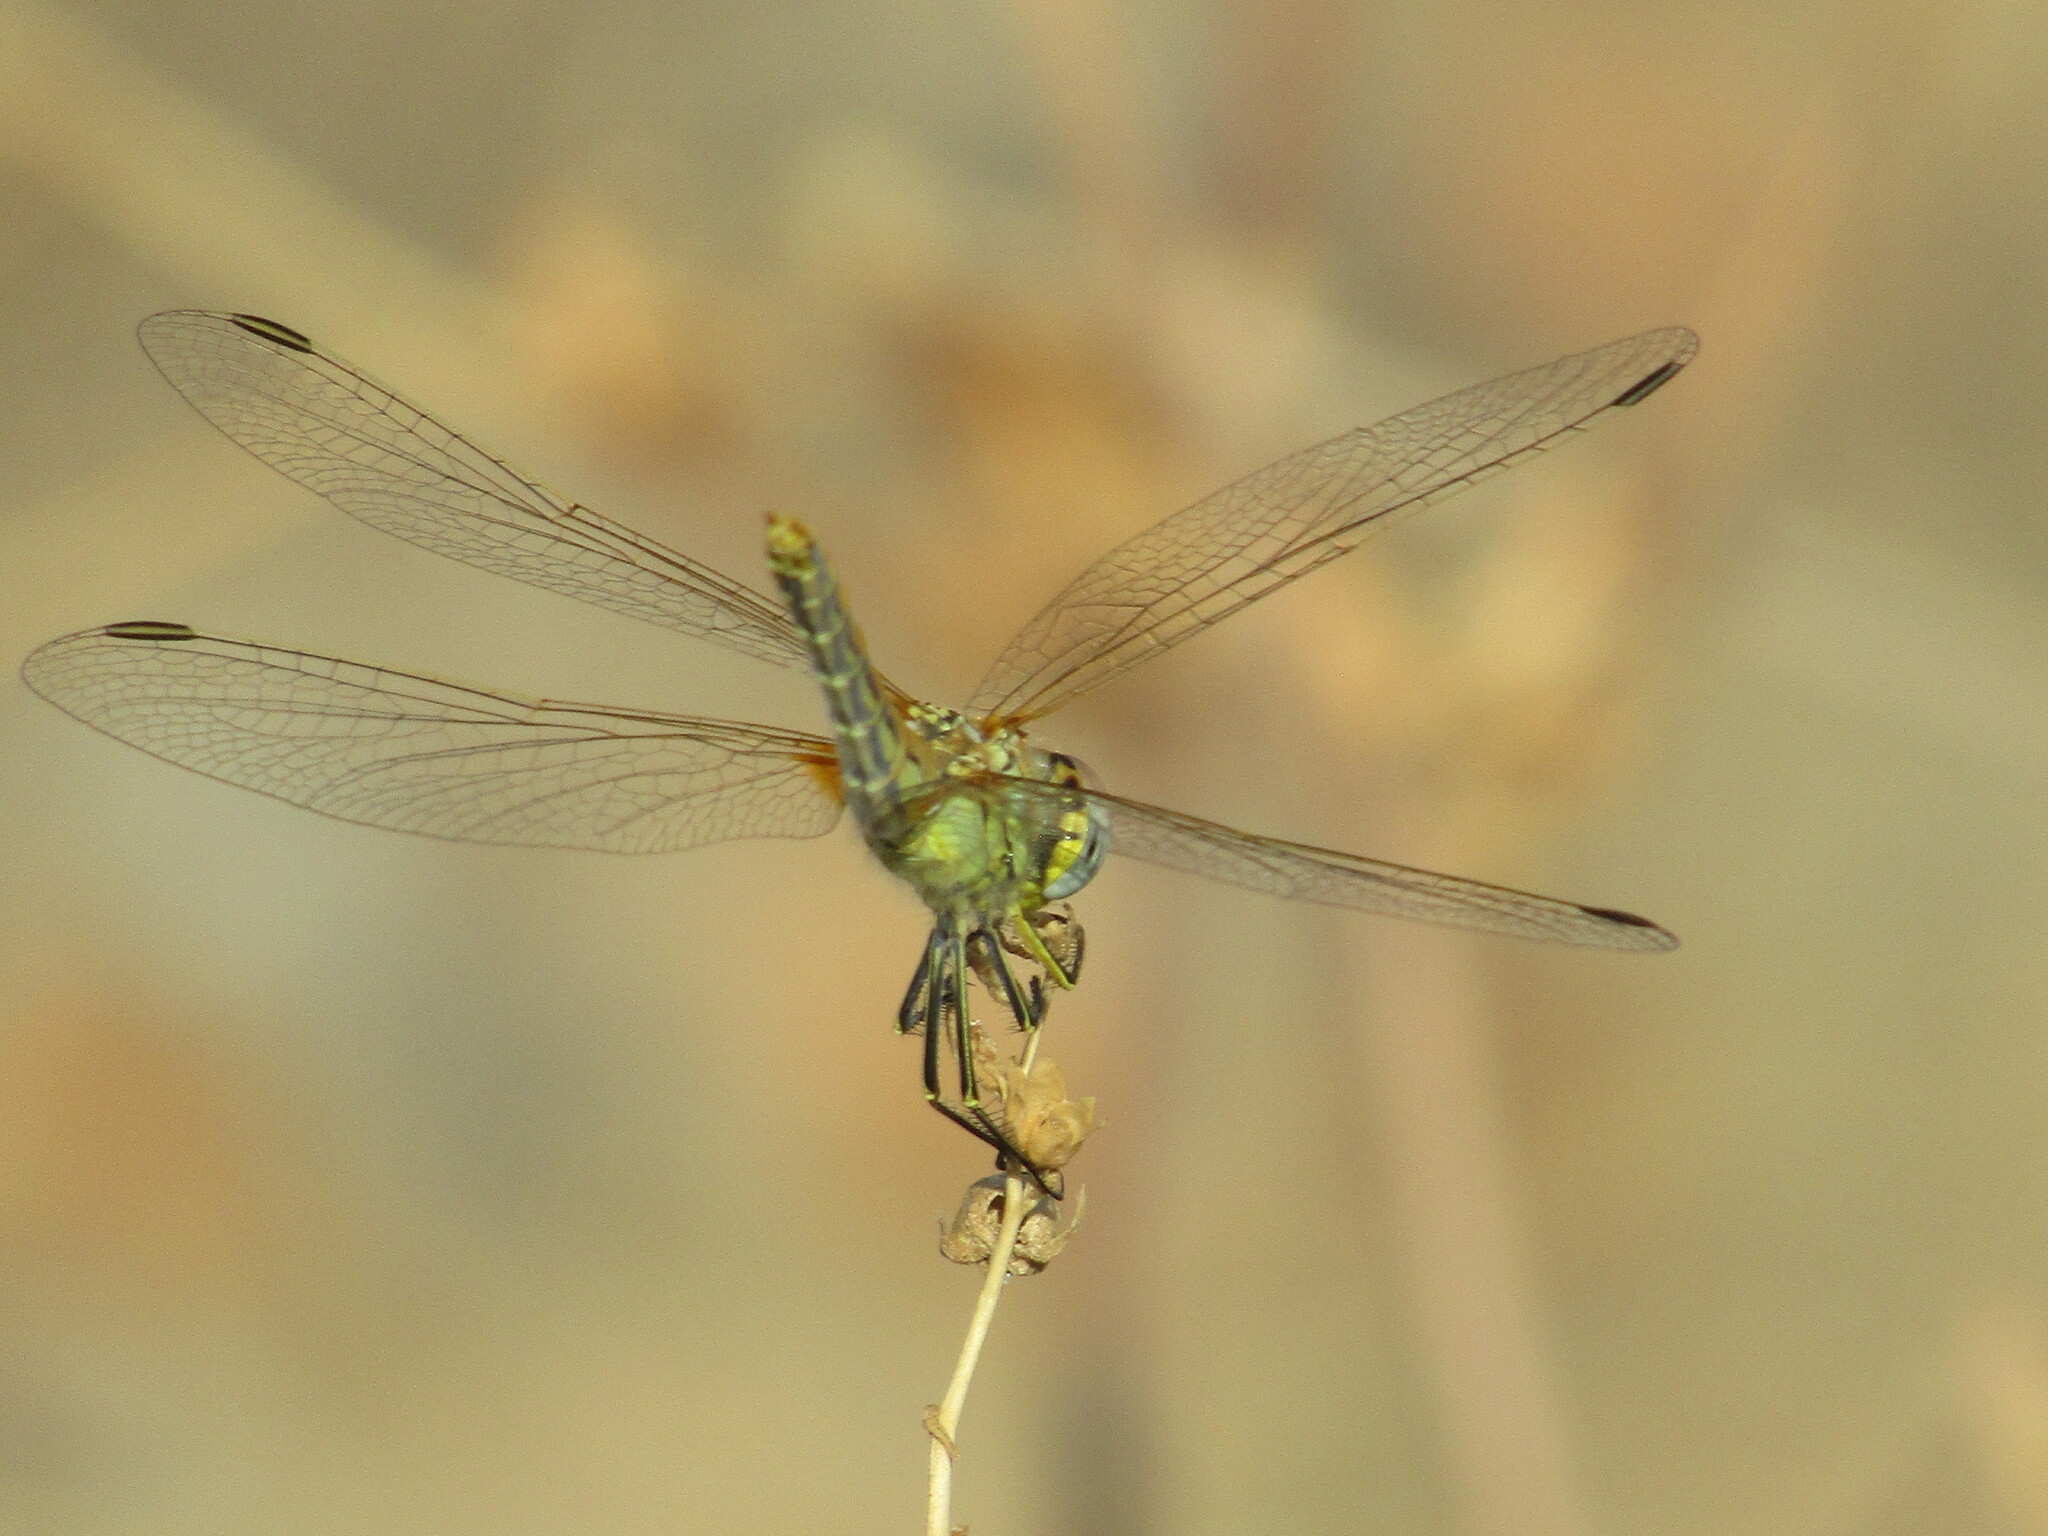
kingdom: Animalia
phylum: Arthropoda
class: Insecta
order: Odonata
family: Libellulidae
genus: Sympetrum
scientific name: Sympetrum fonscolombii
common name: Red-veined darter
